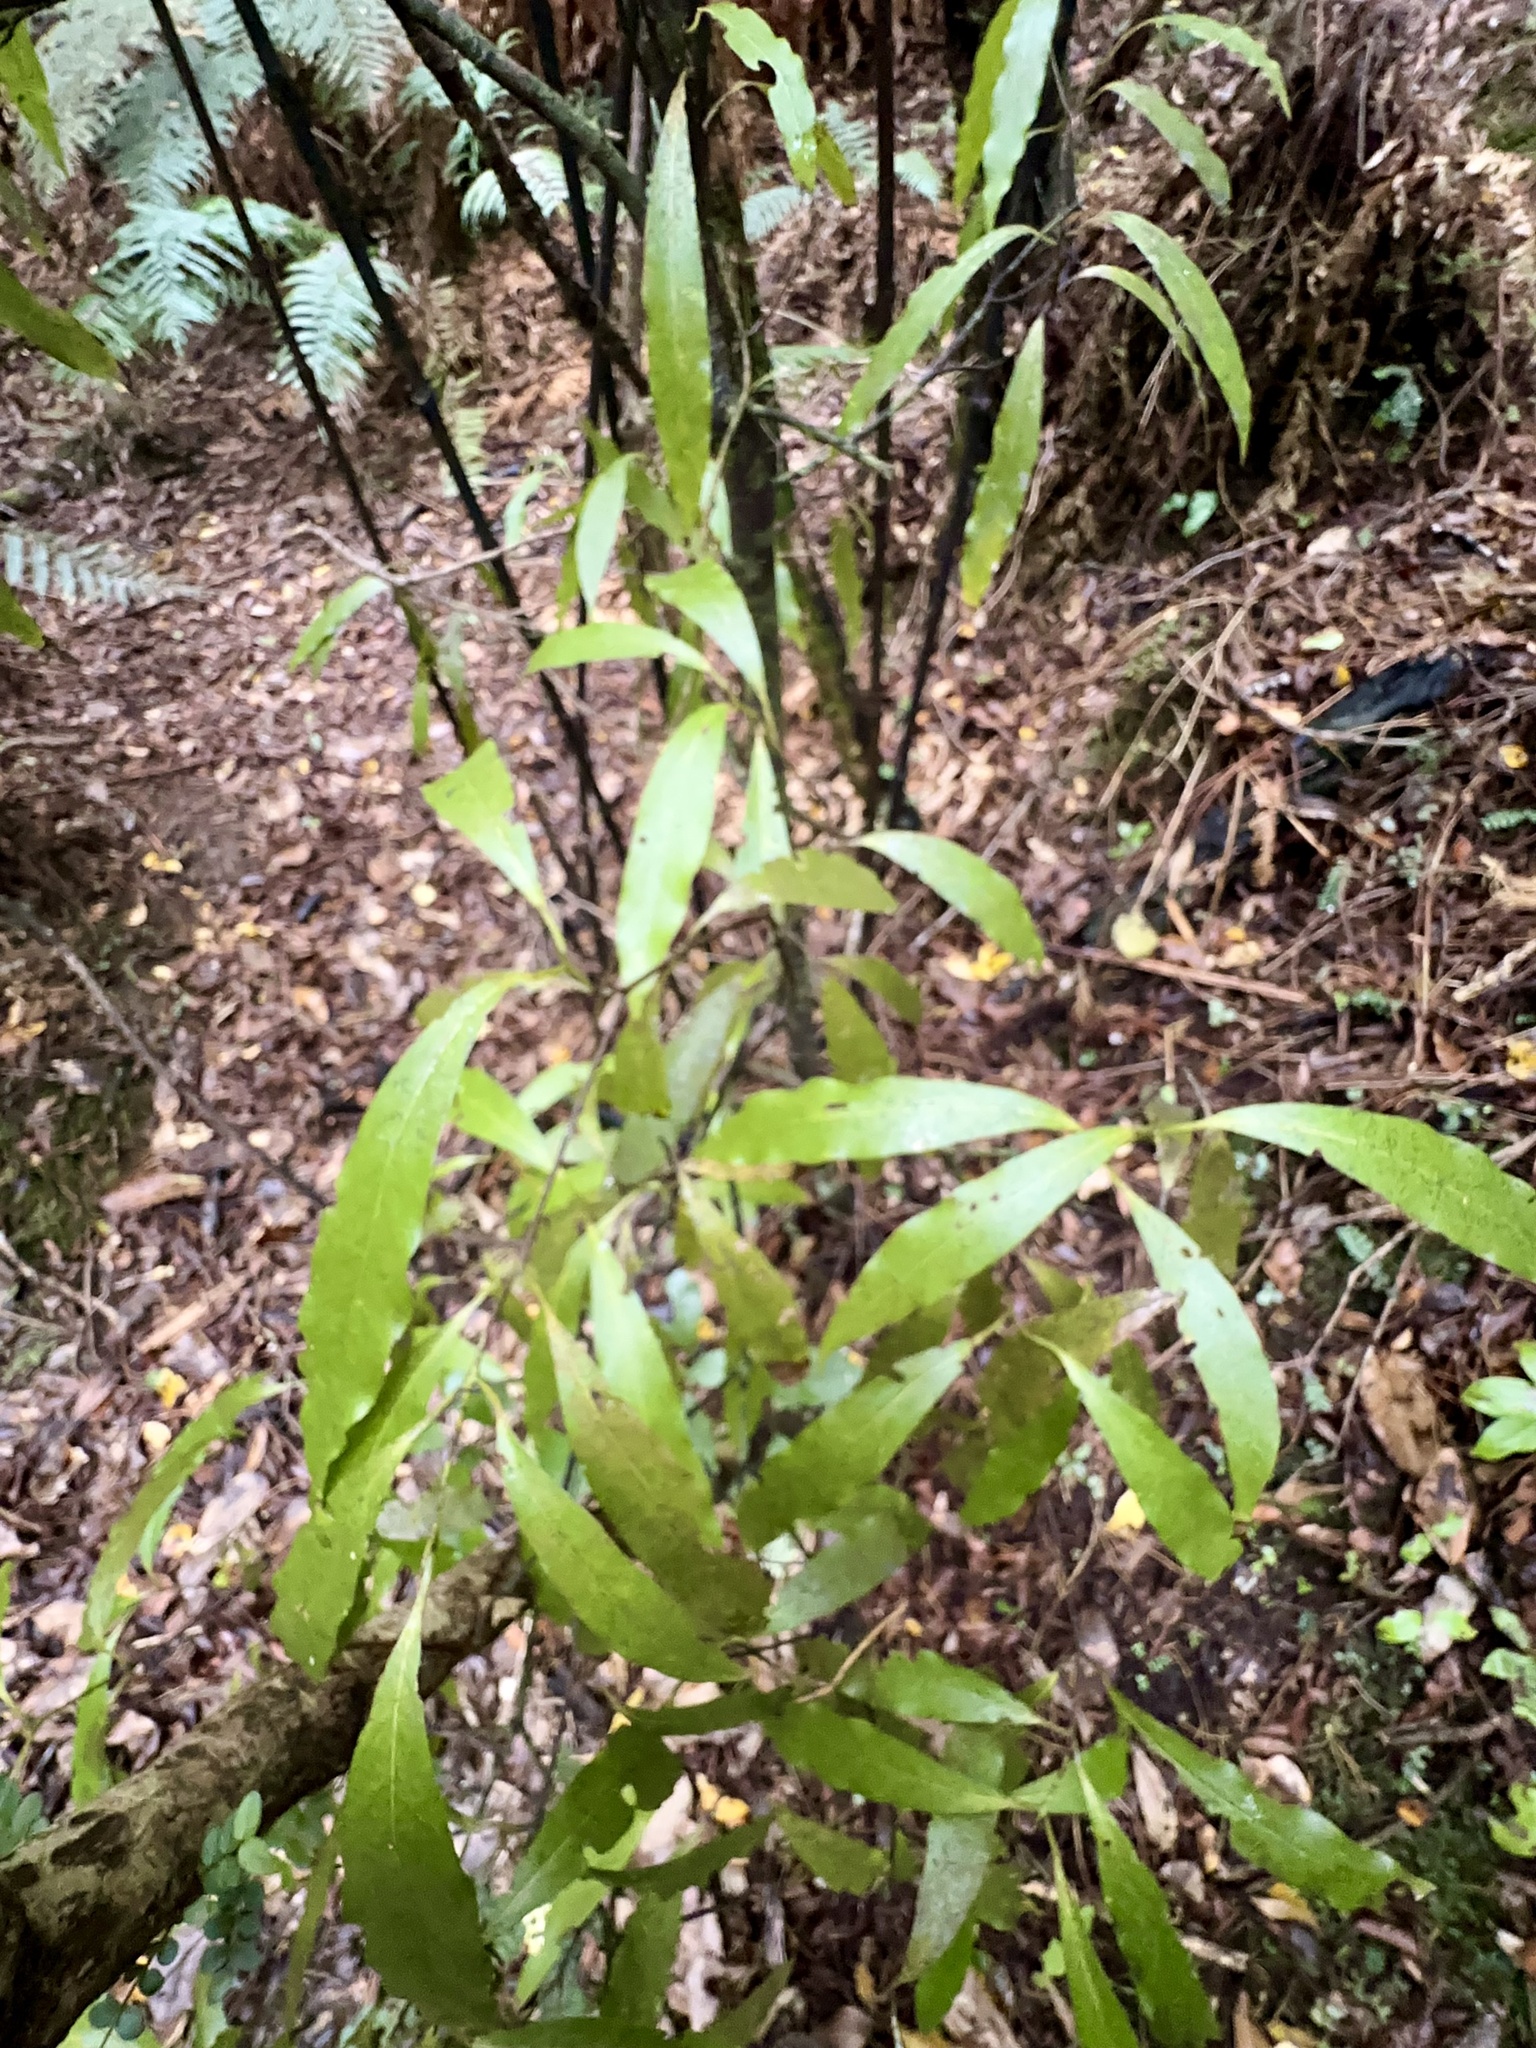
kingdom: Plantae
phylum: Tracheophyta
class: Magnoliopsida
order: Laurales
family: Lauraceae
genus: Beilschmiedia
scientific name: Beilschmiedia tawa
